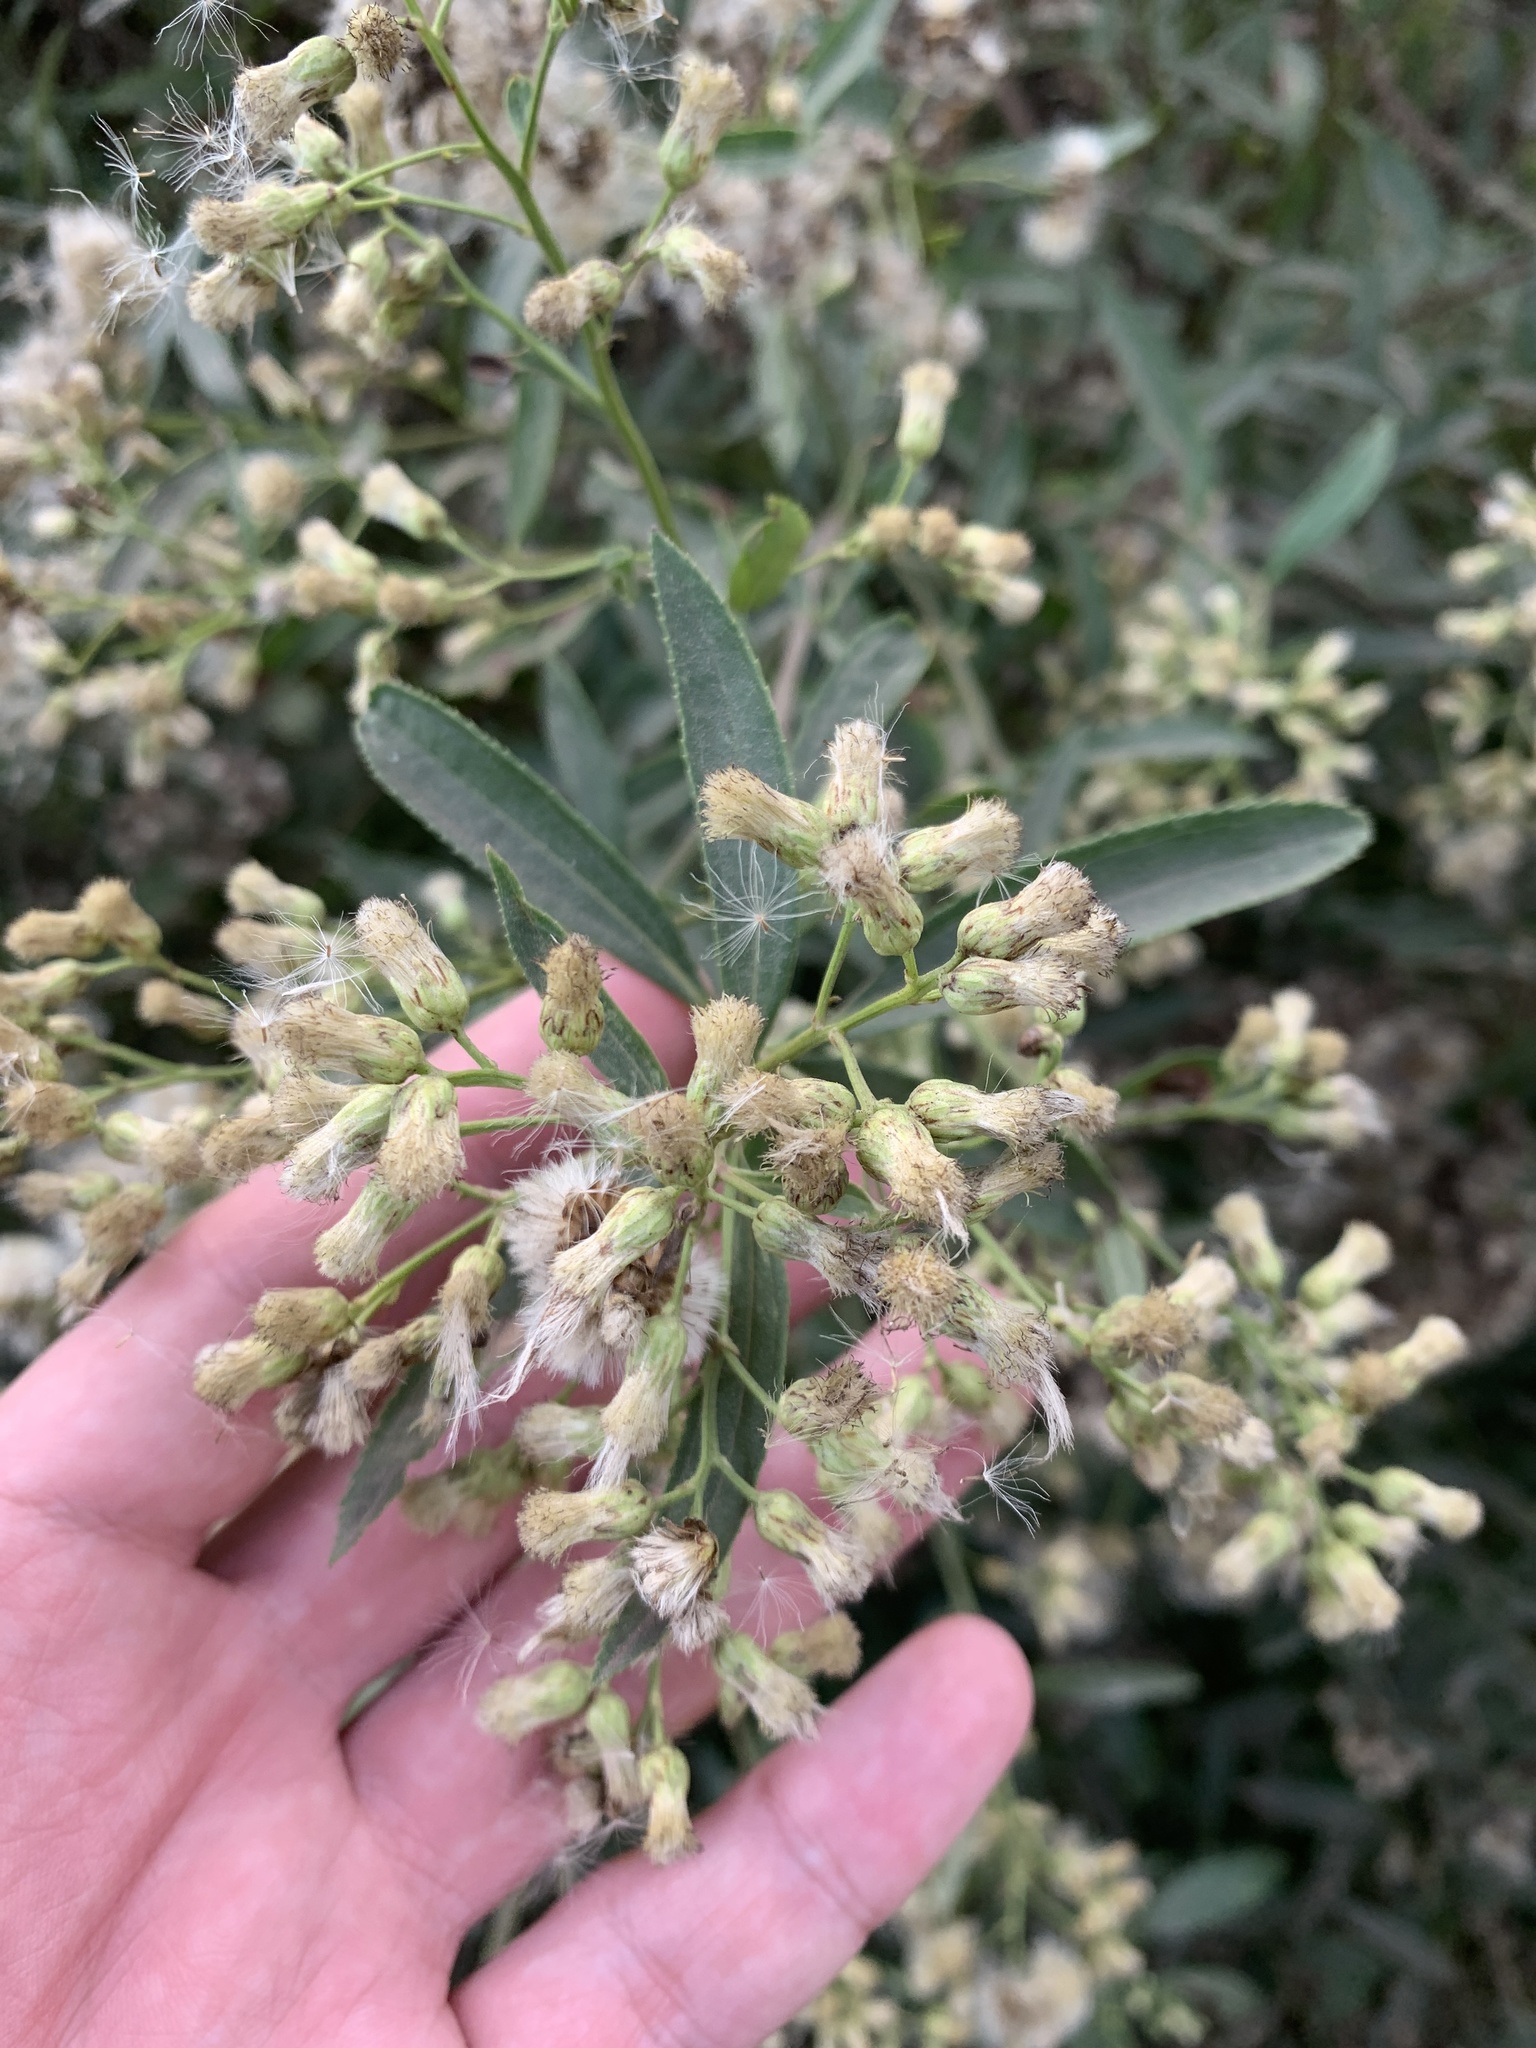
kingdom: Plantae
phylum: Tracheophyta
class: Magnoliopsida
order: Asterales
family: Asteraceae
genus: Baccharis
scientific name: Baccharis punctulata
